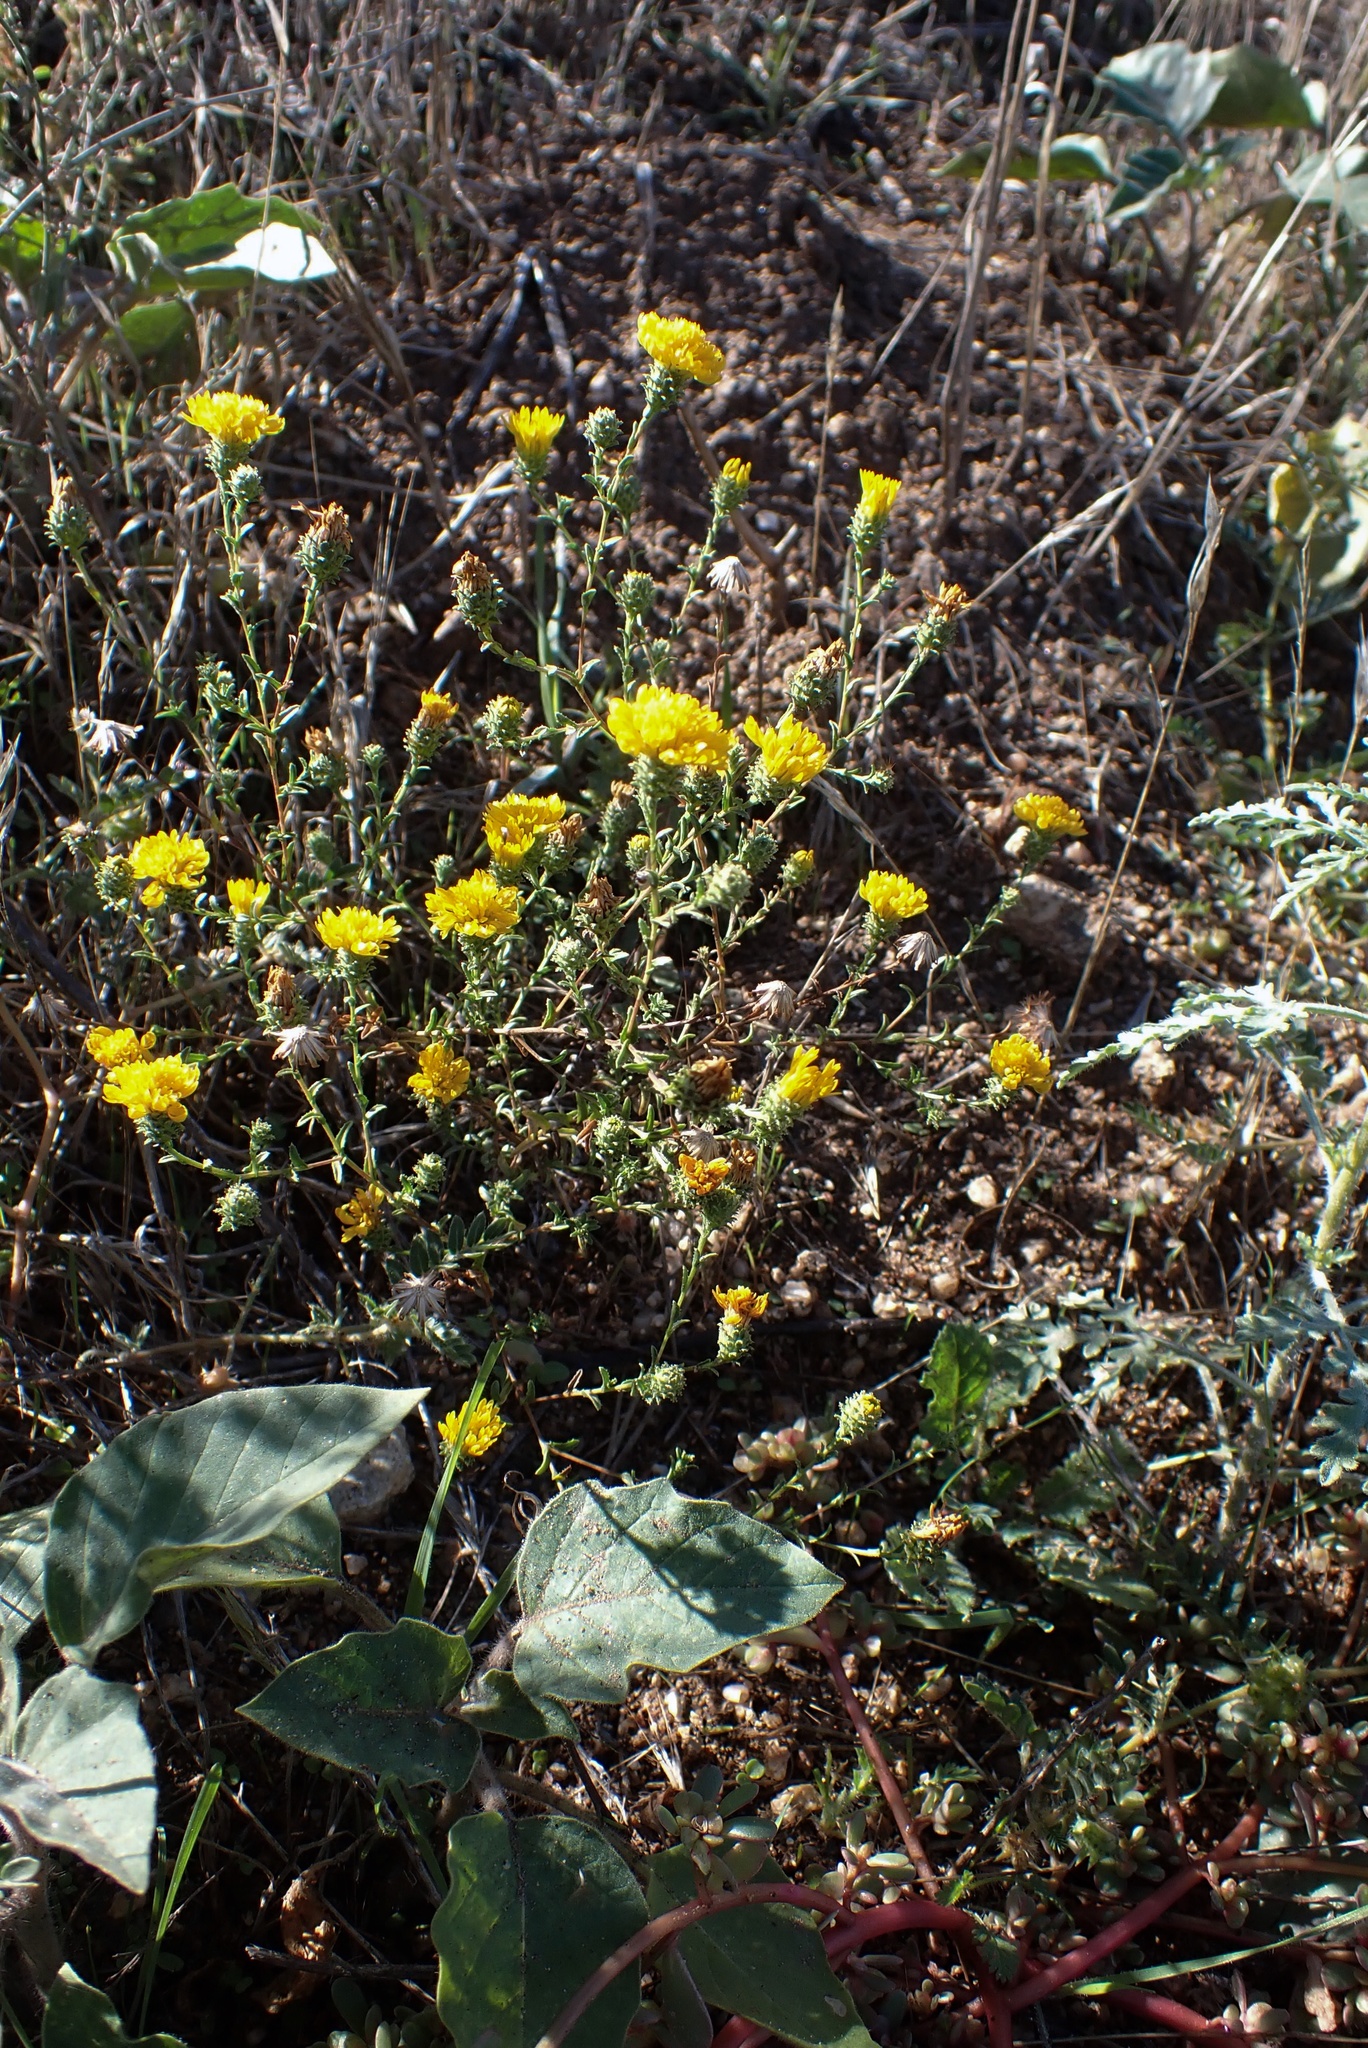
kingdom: Plantae
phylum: Tracheophyta
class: Magnoliopsida
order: Asterales
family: Asteraceae
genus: Lessingia
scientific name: Lessingia glandulifera
